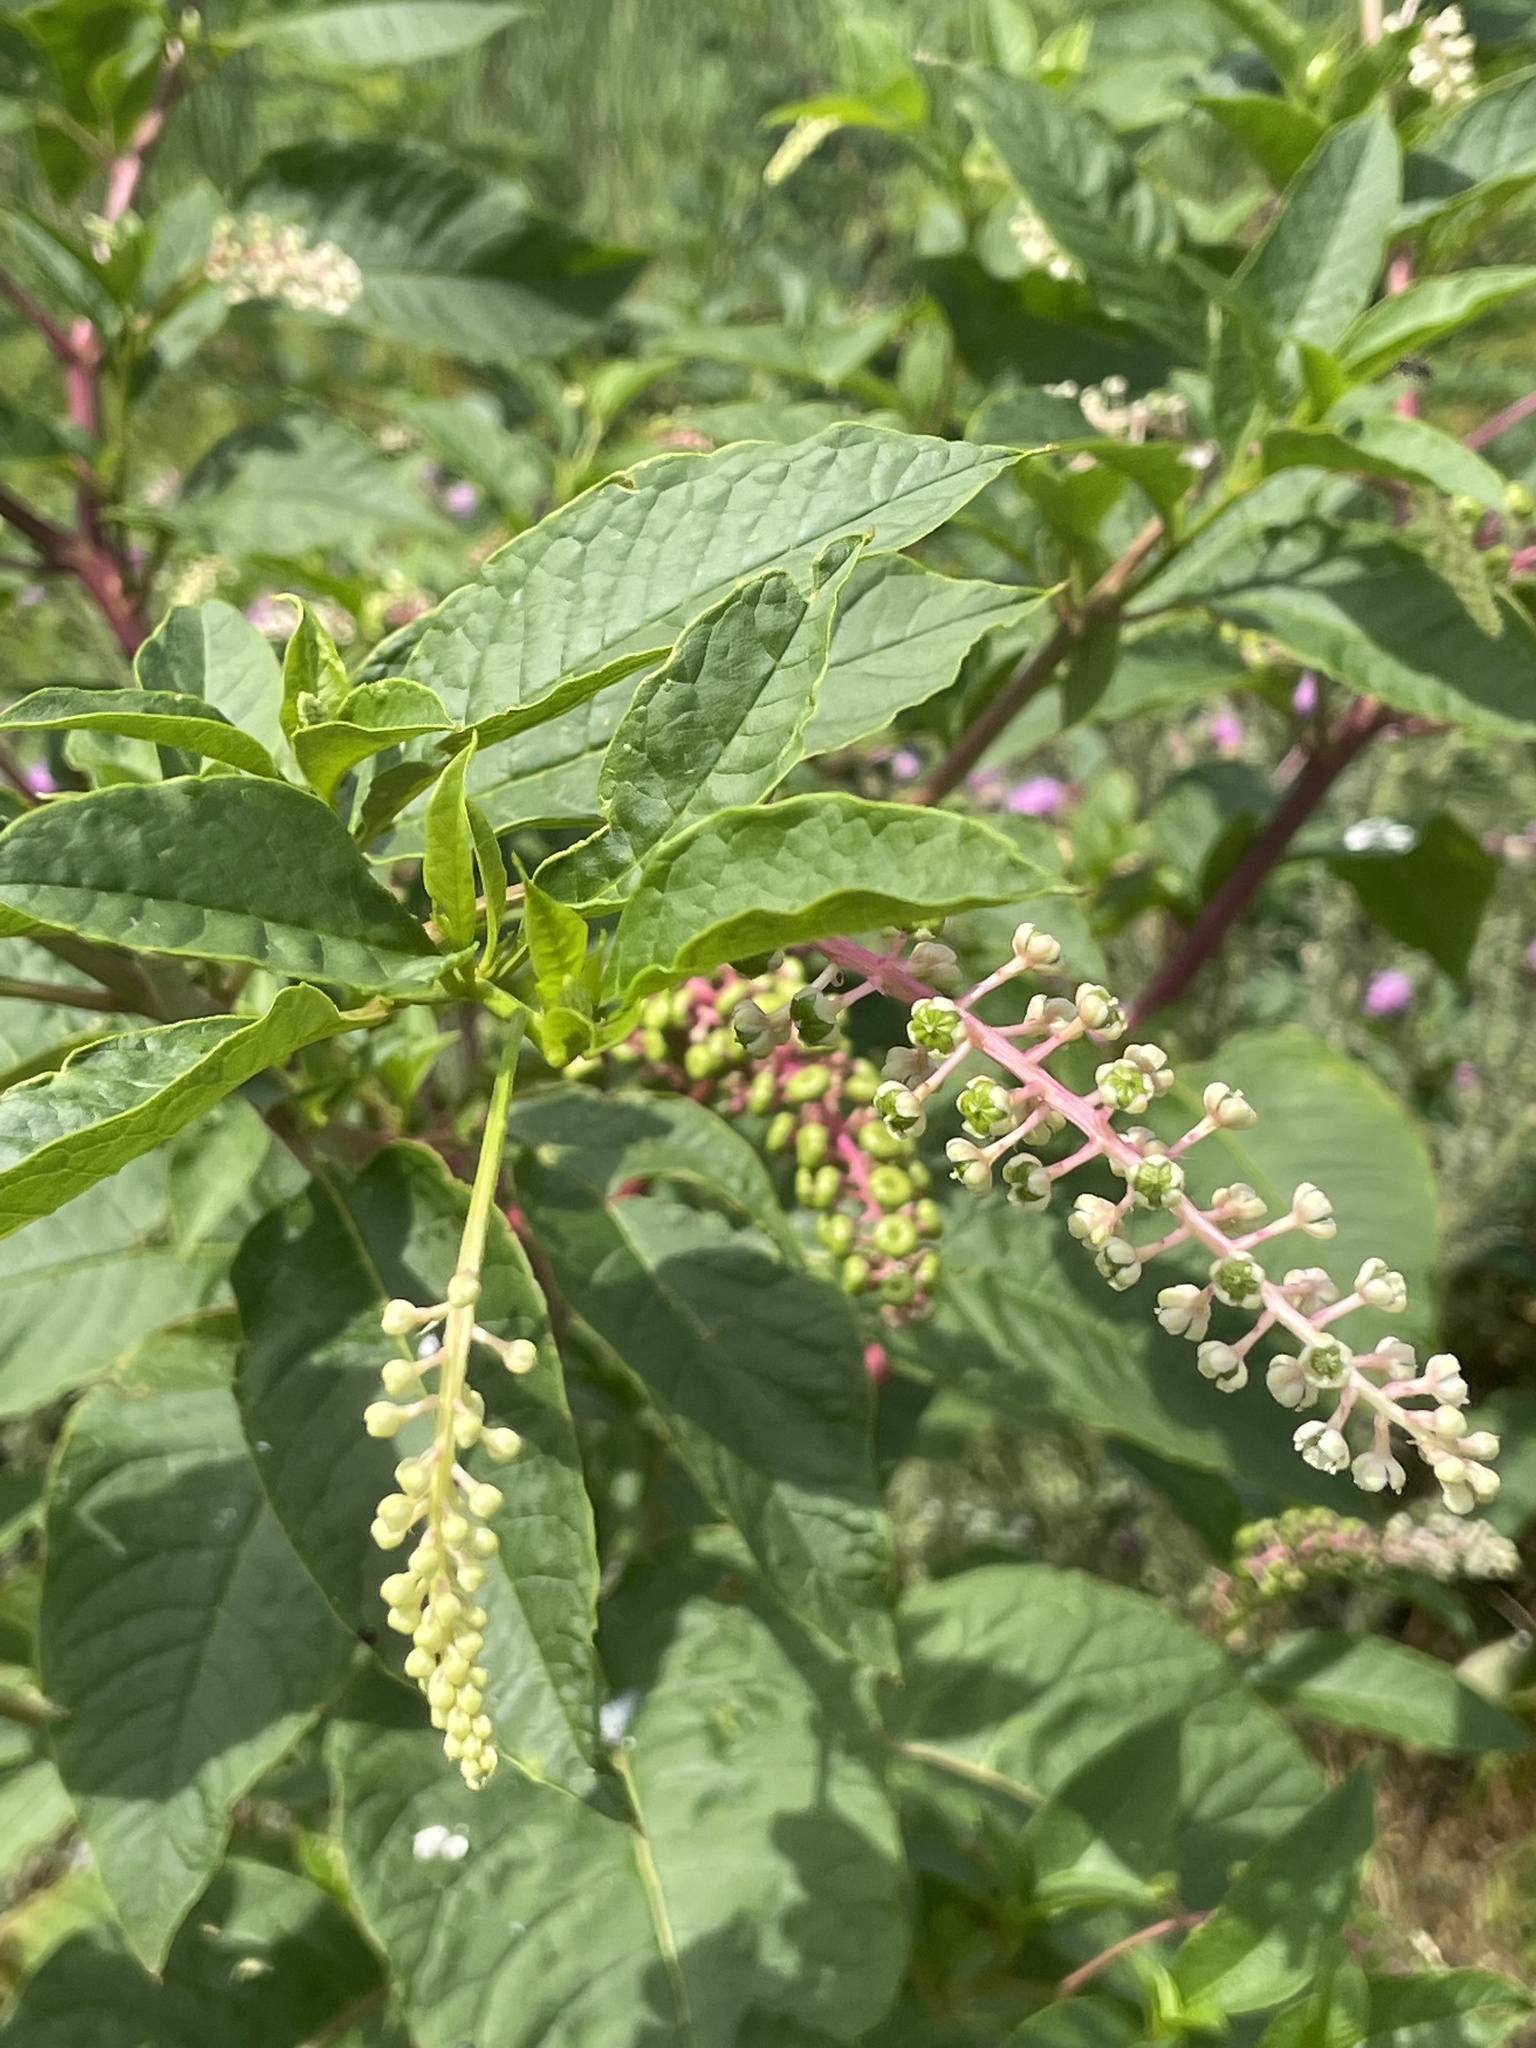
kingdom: Plantae
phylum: Tracheophyta
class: Magnoliopsida
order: Caryophyllales
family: Phytolaccaceae
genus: Phytolacca
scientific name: Phytolacca americana
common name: American pokeweed
